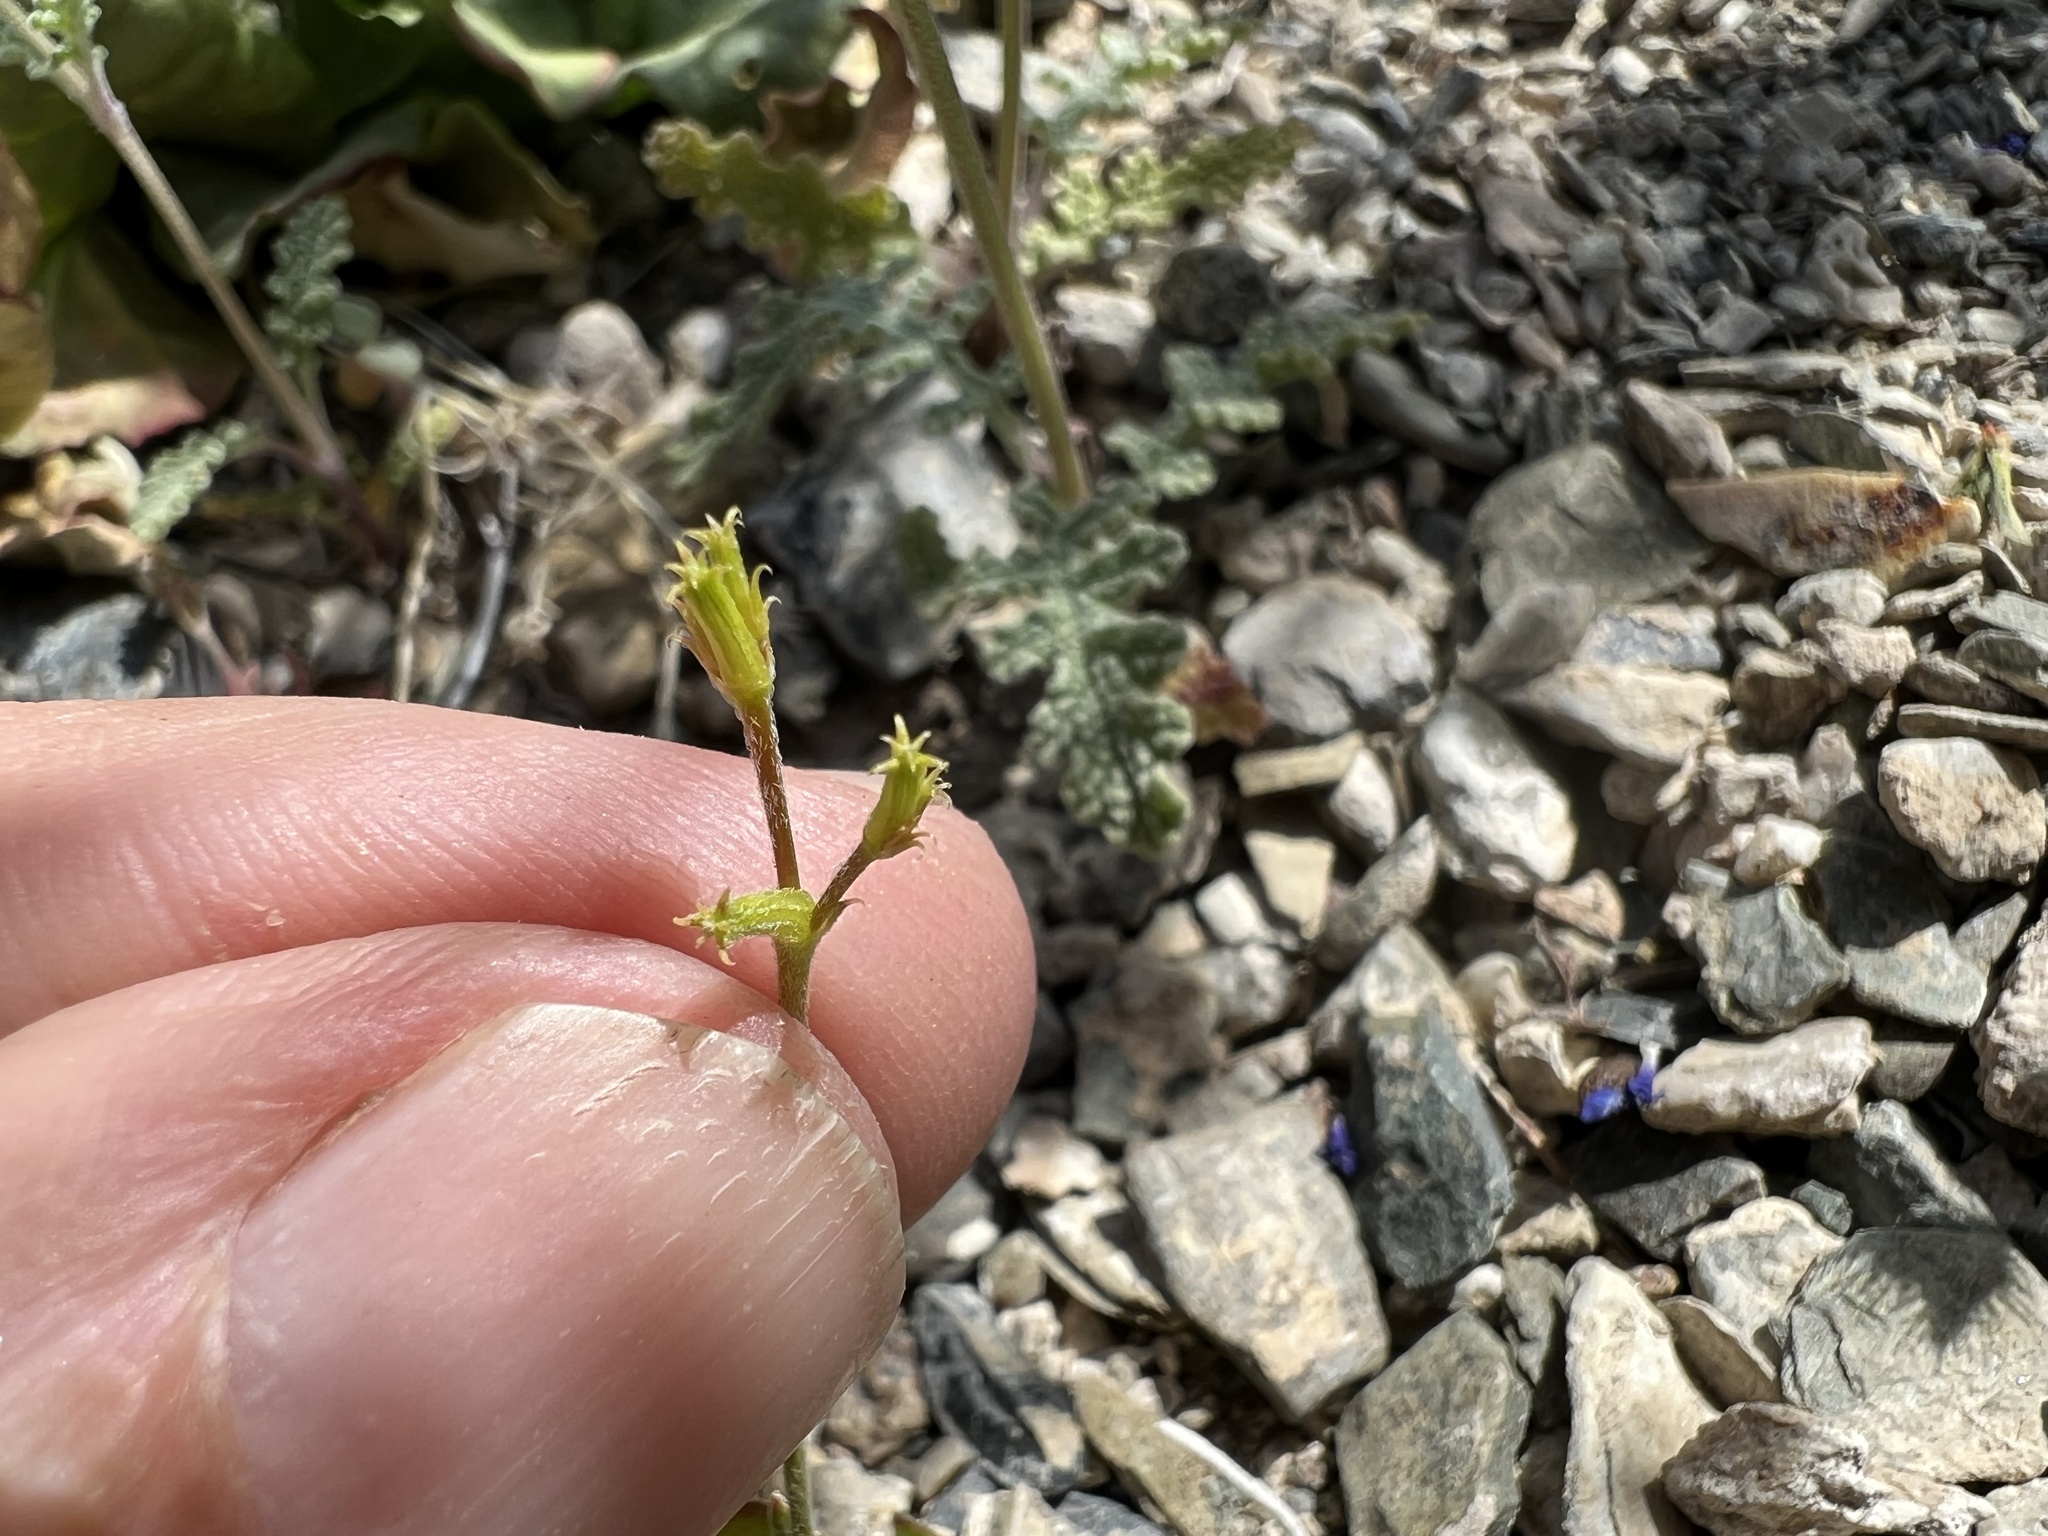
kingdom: Plantae
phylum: Tracheophyta
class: Magnoliopsida
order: Caryophyllales
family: Polygonaceae
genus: Chorizanthe
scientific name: Chorizanthe brevicornu
